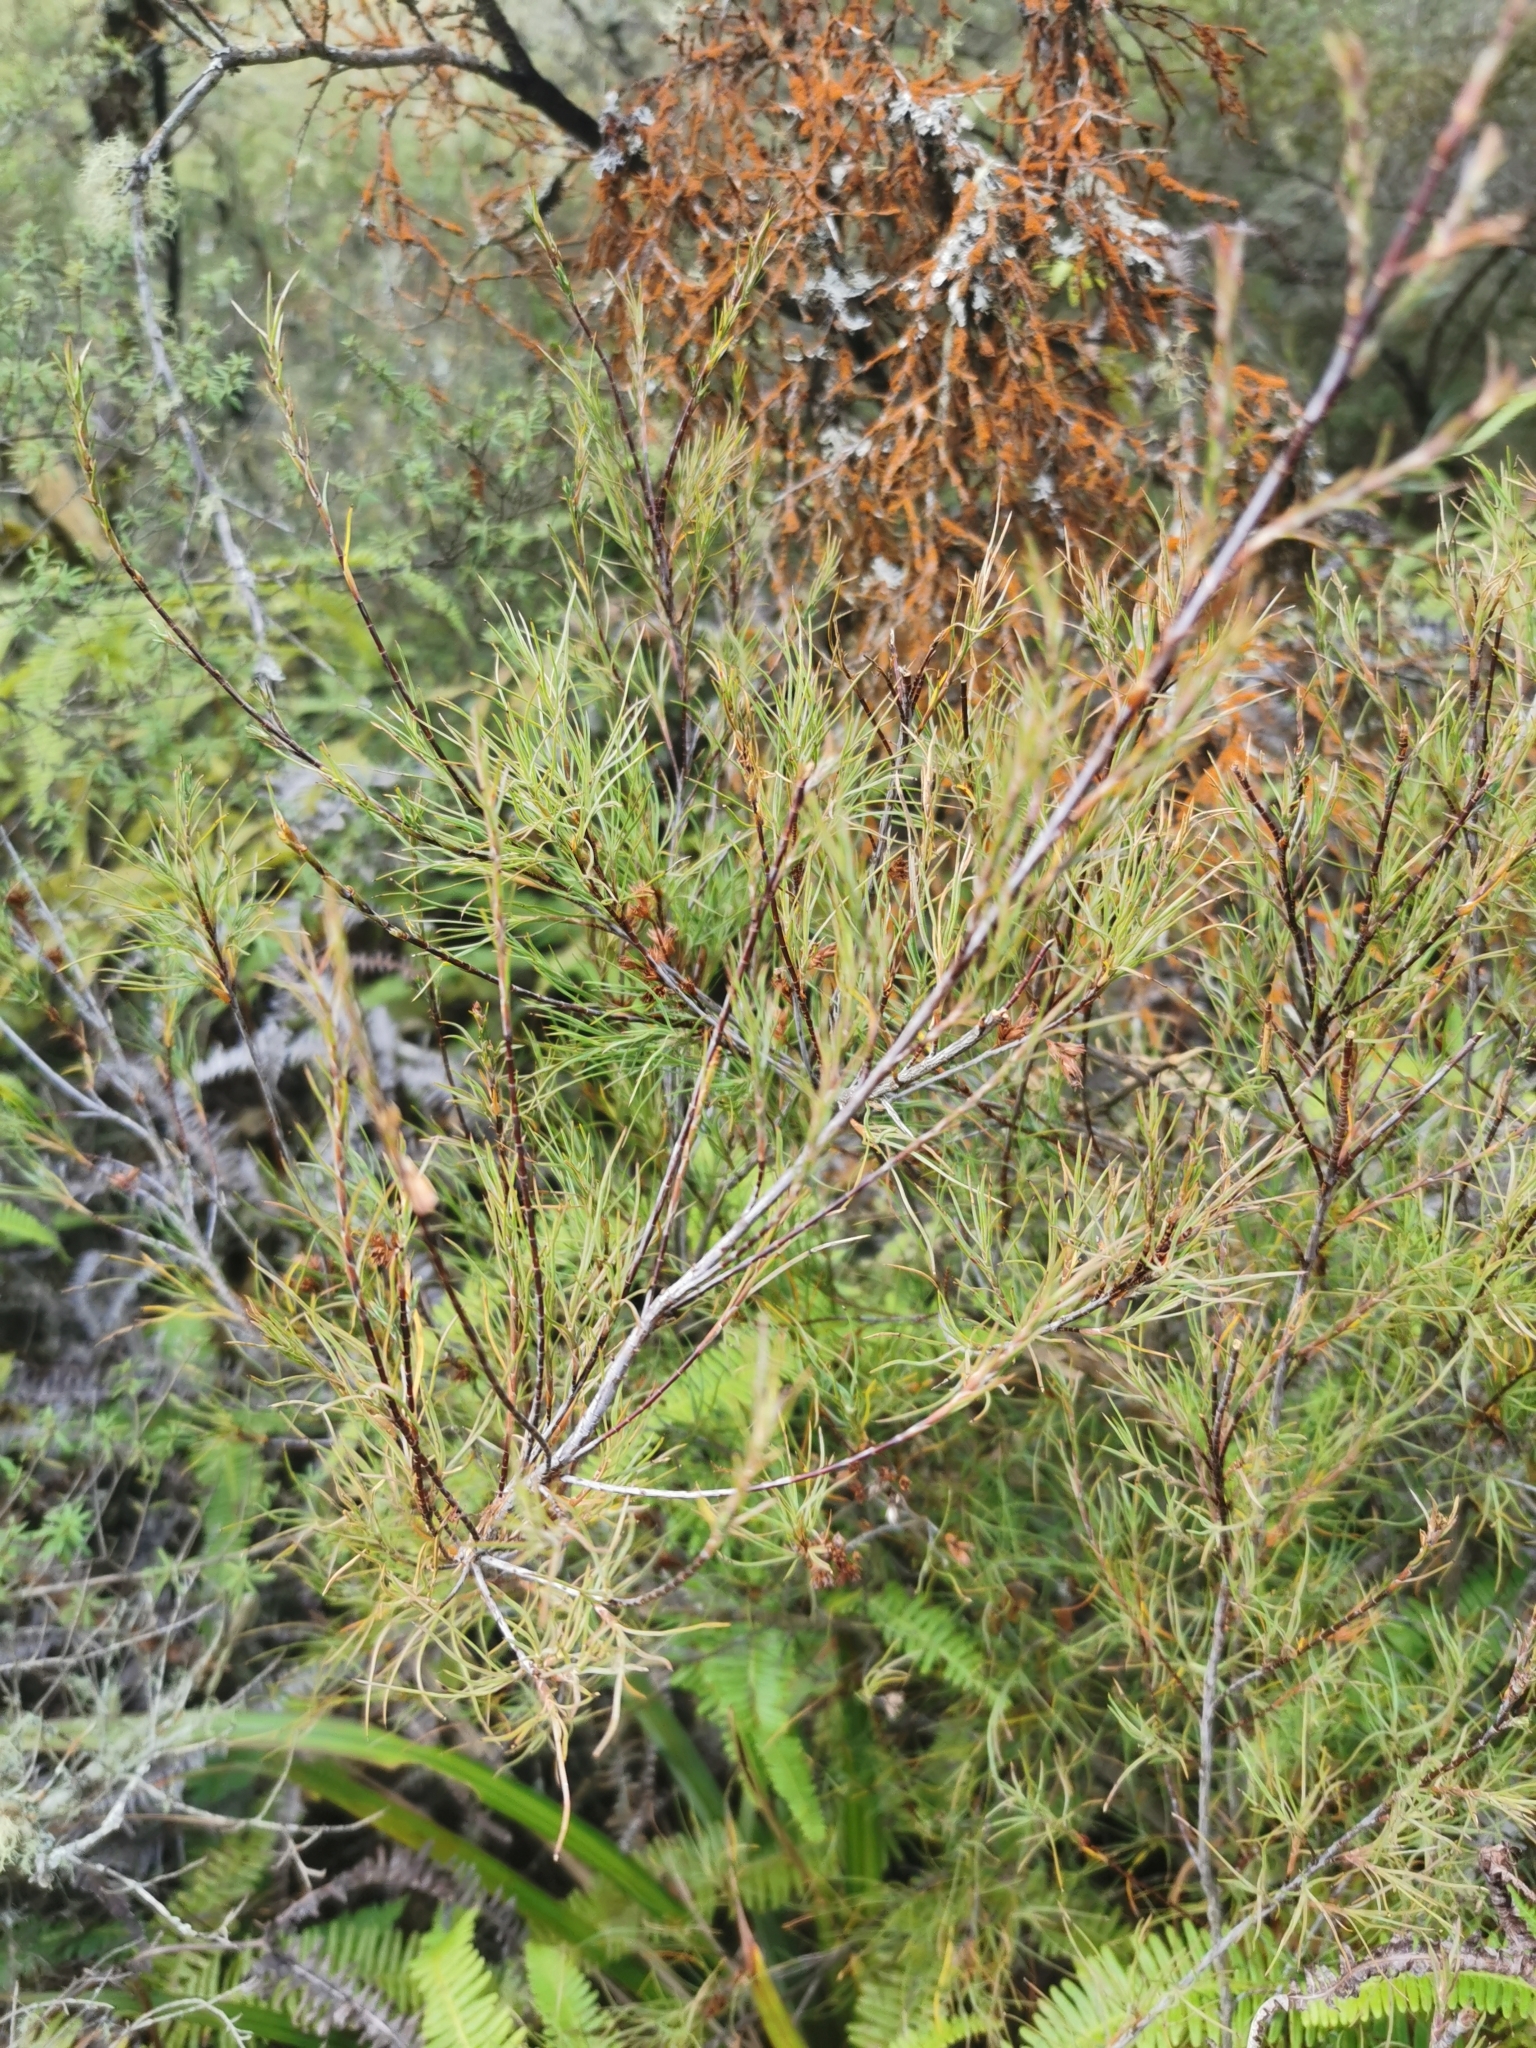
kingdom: Plantae
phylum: Tracheophyta
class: Magnoliopsida
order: Ericales
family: Ericaceae
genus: Dracophyllum
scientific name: Dracophyllum subulatum
